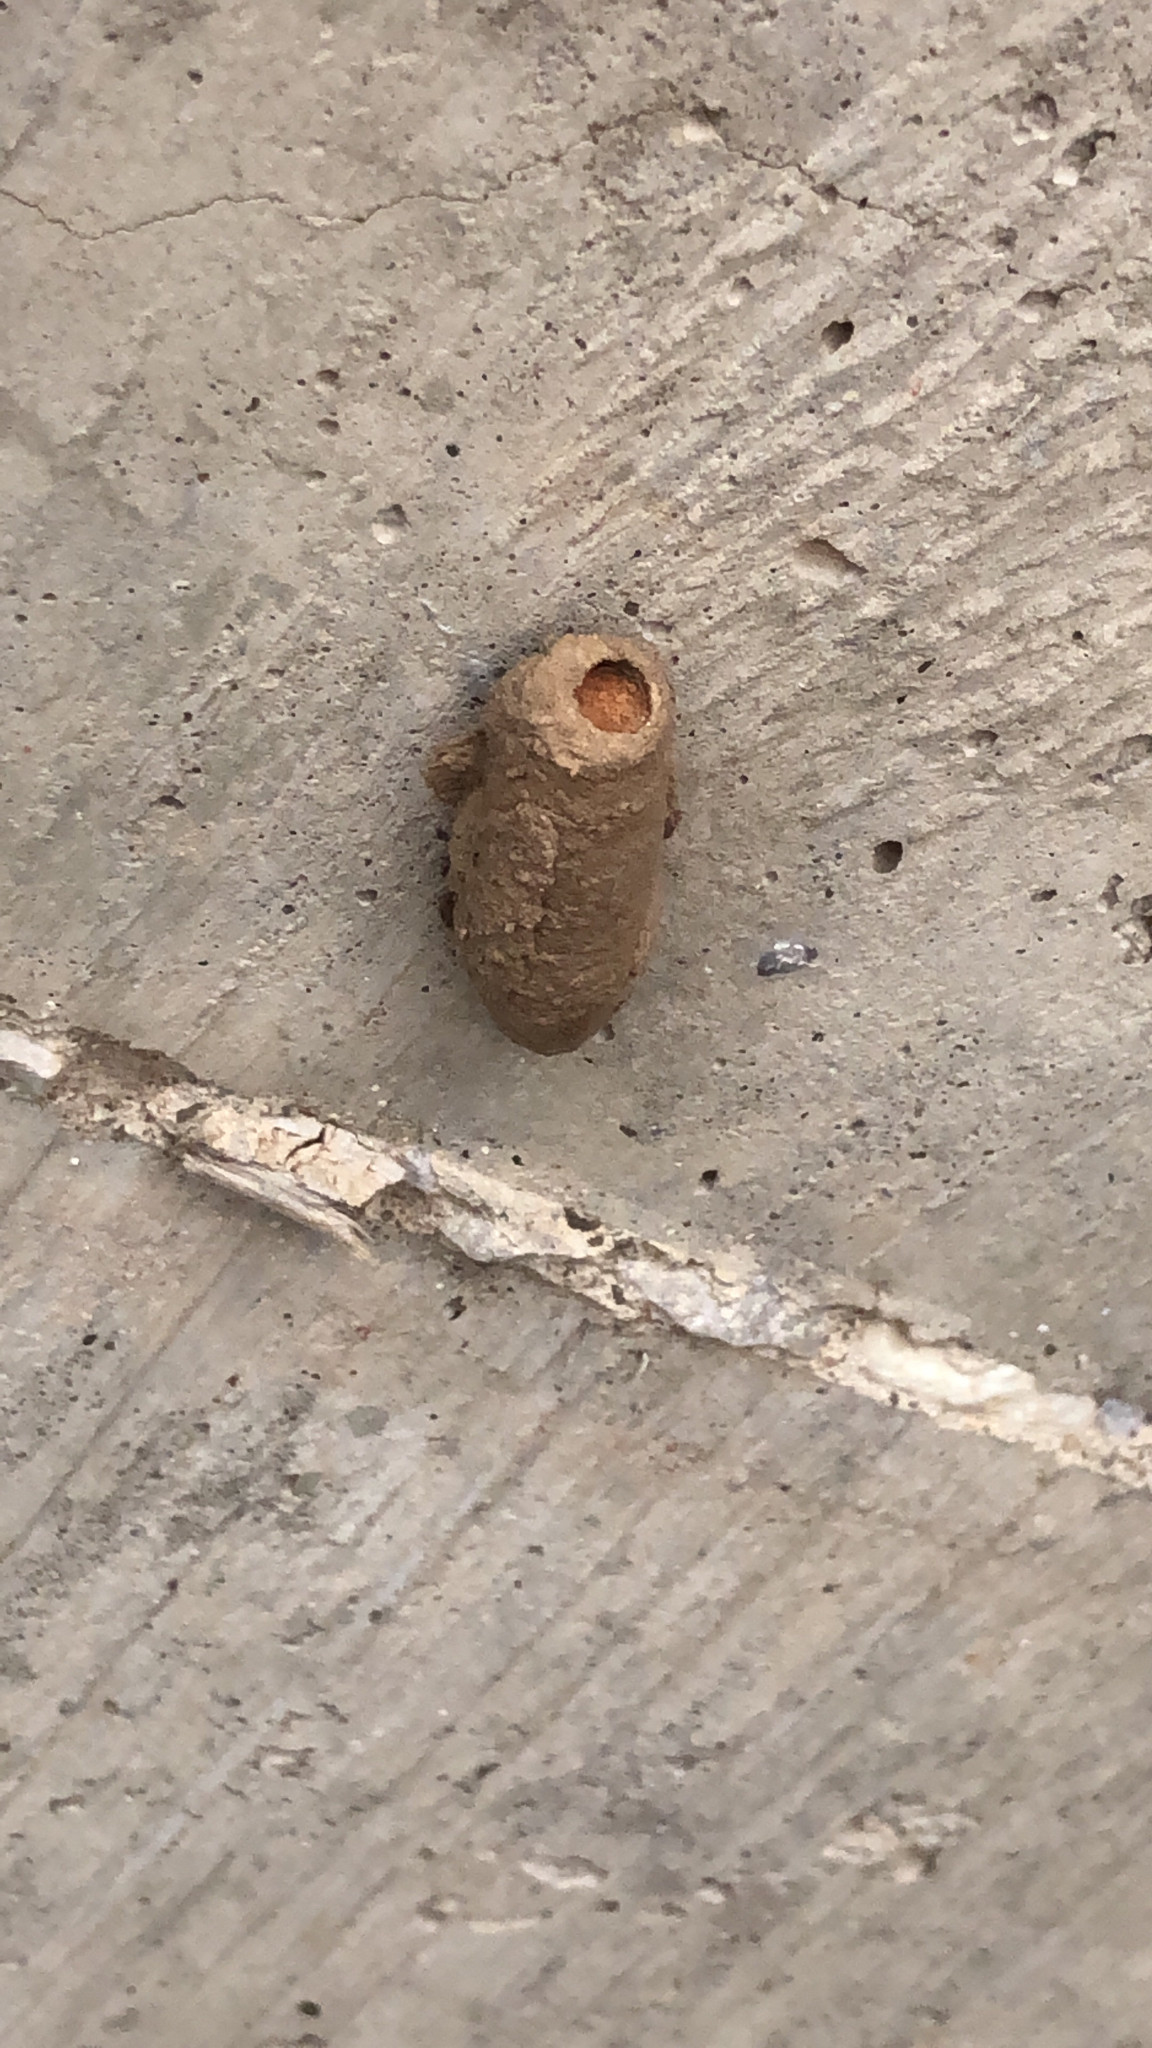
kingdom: Animalia
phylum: Arthropoda
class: Insecta
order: Hymenoptera
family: Sphecidae
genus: Sceliphron
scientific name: Sceliphron caementarium
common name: Mud dauber
